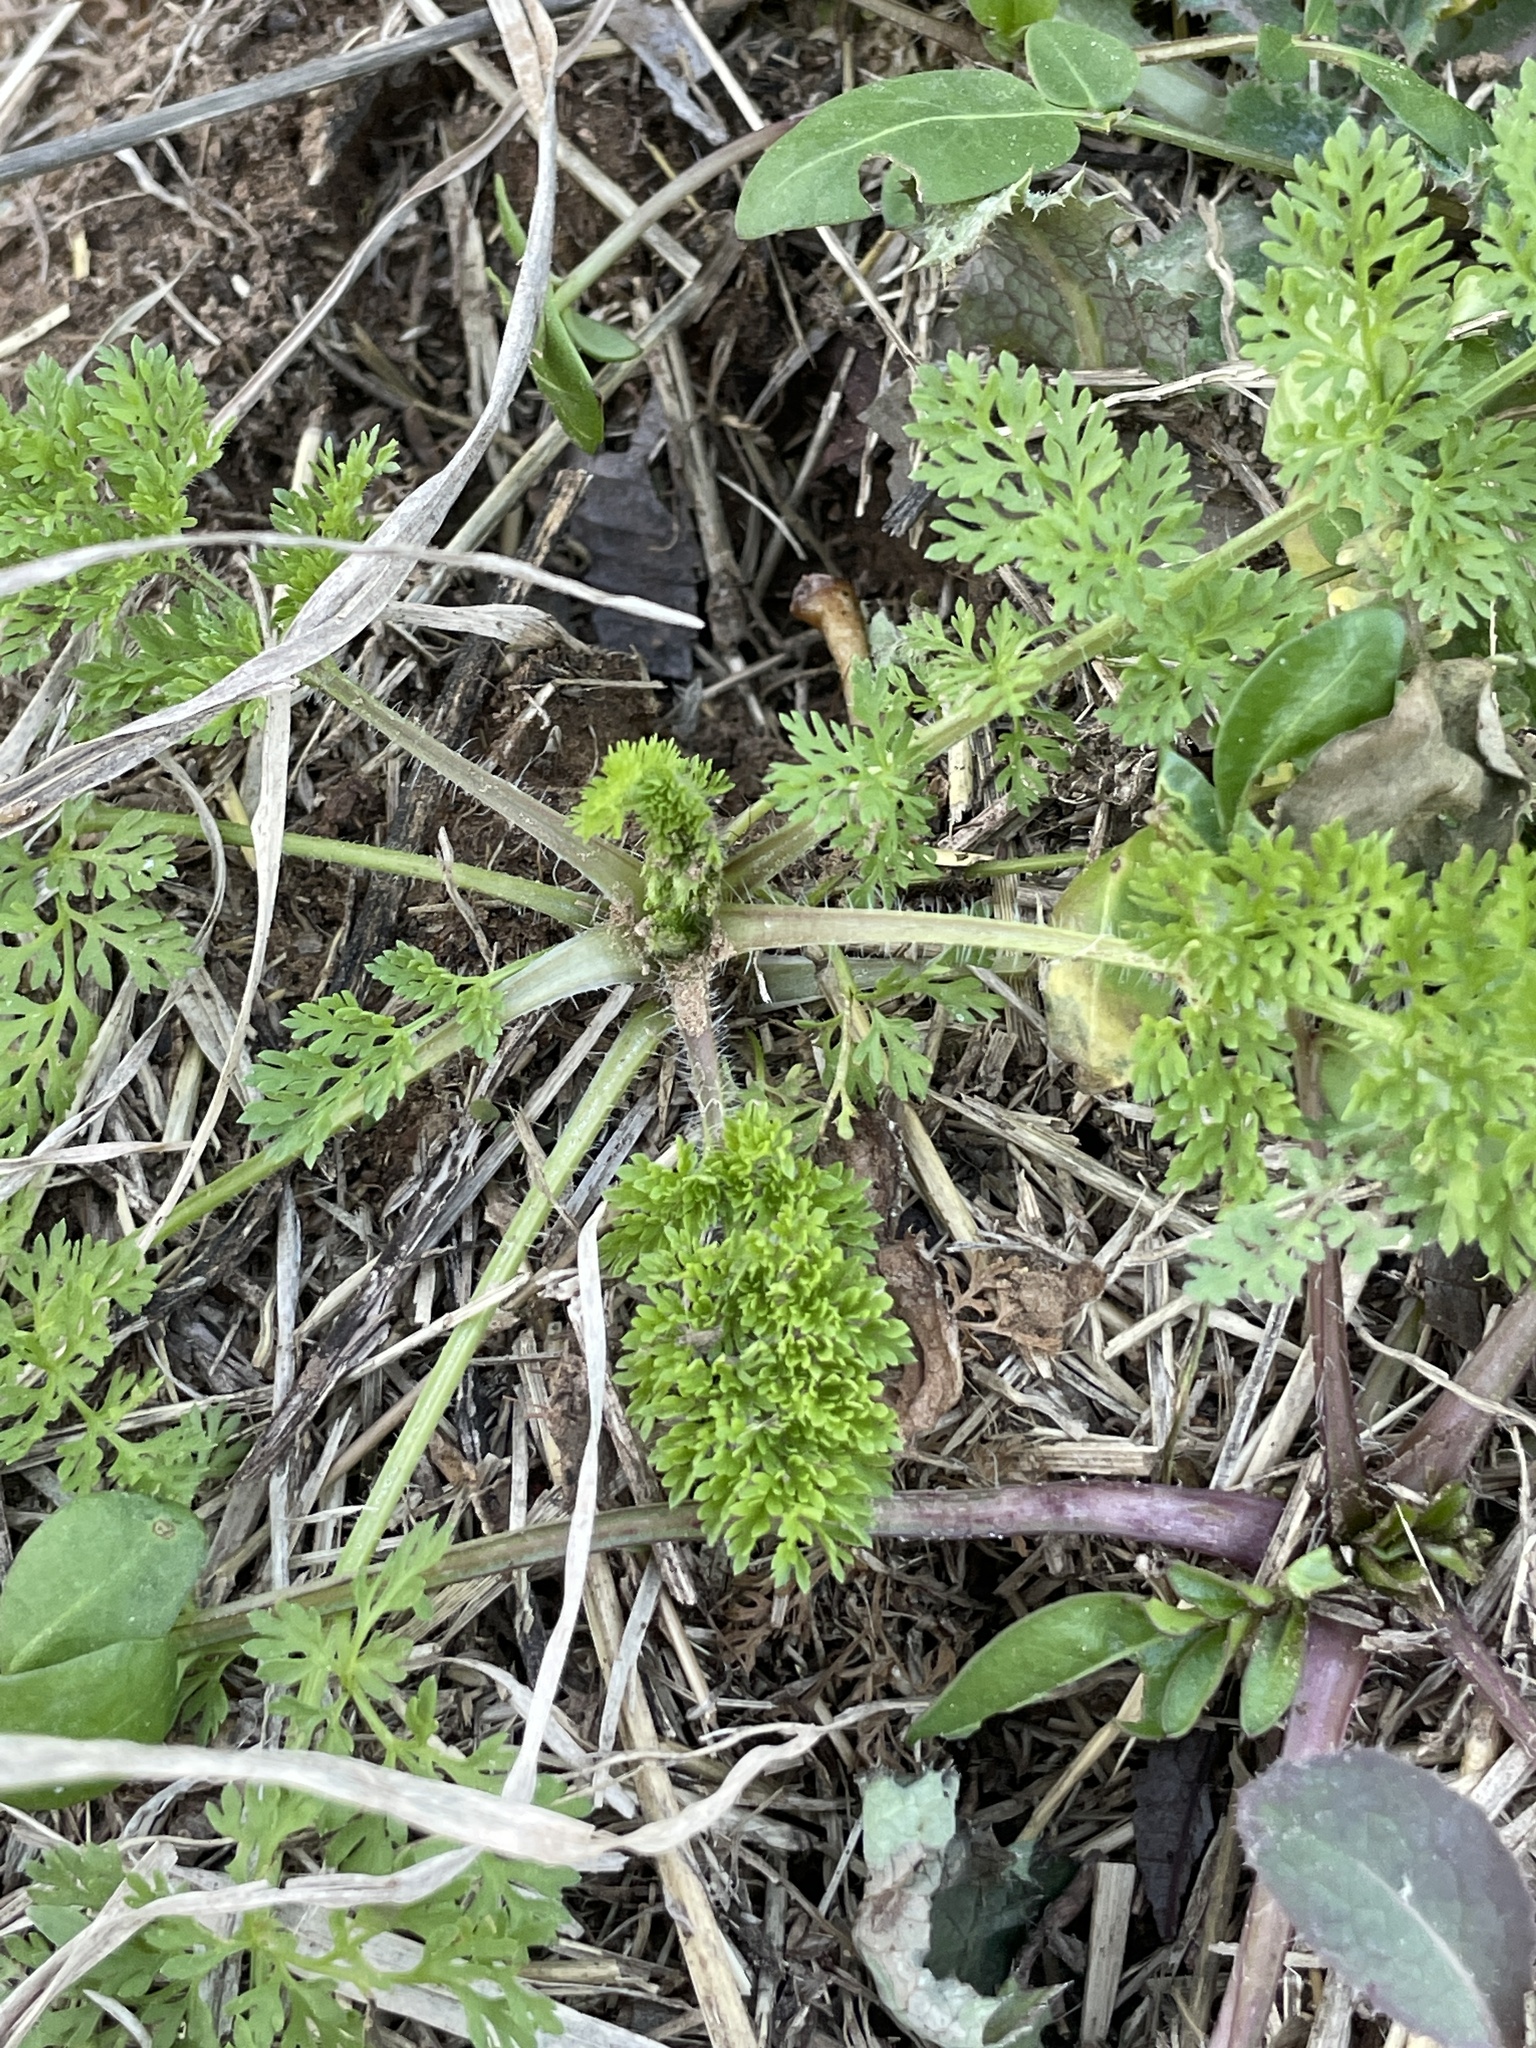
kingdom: Plantae
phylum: Tracheophyta
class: Magnoliopsida
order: Apiales
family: Apiaceae
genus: Daucus
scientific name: Daucus pusillus
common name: Southwest wild carrot
